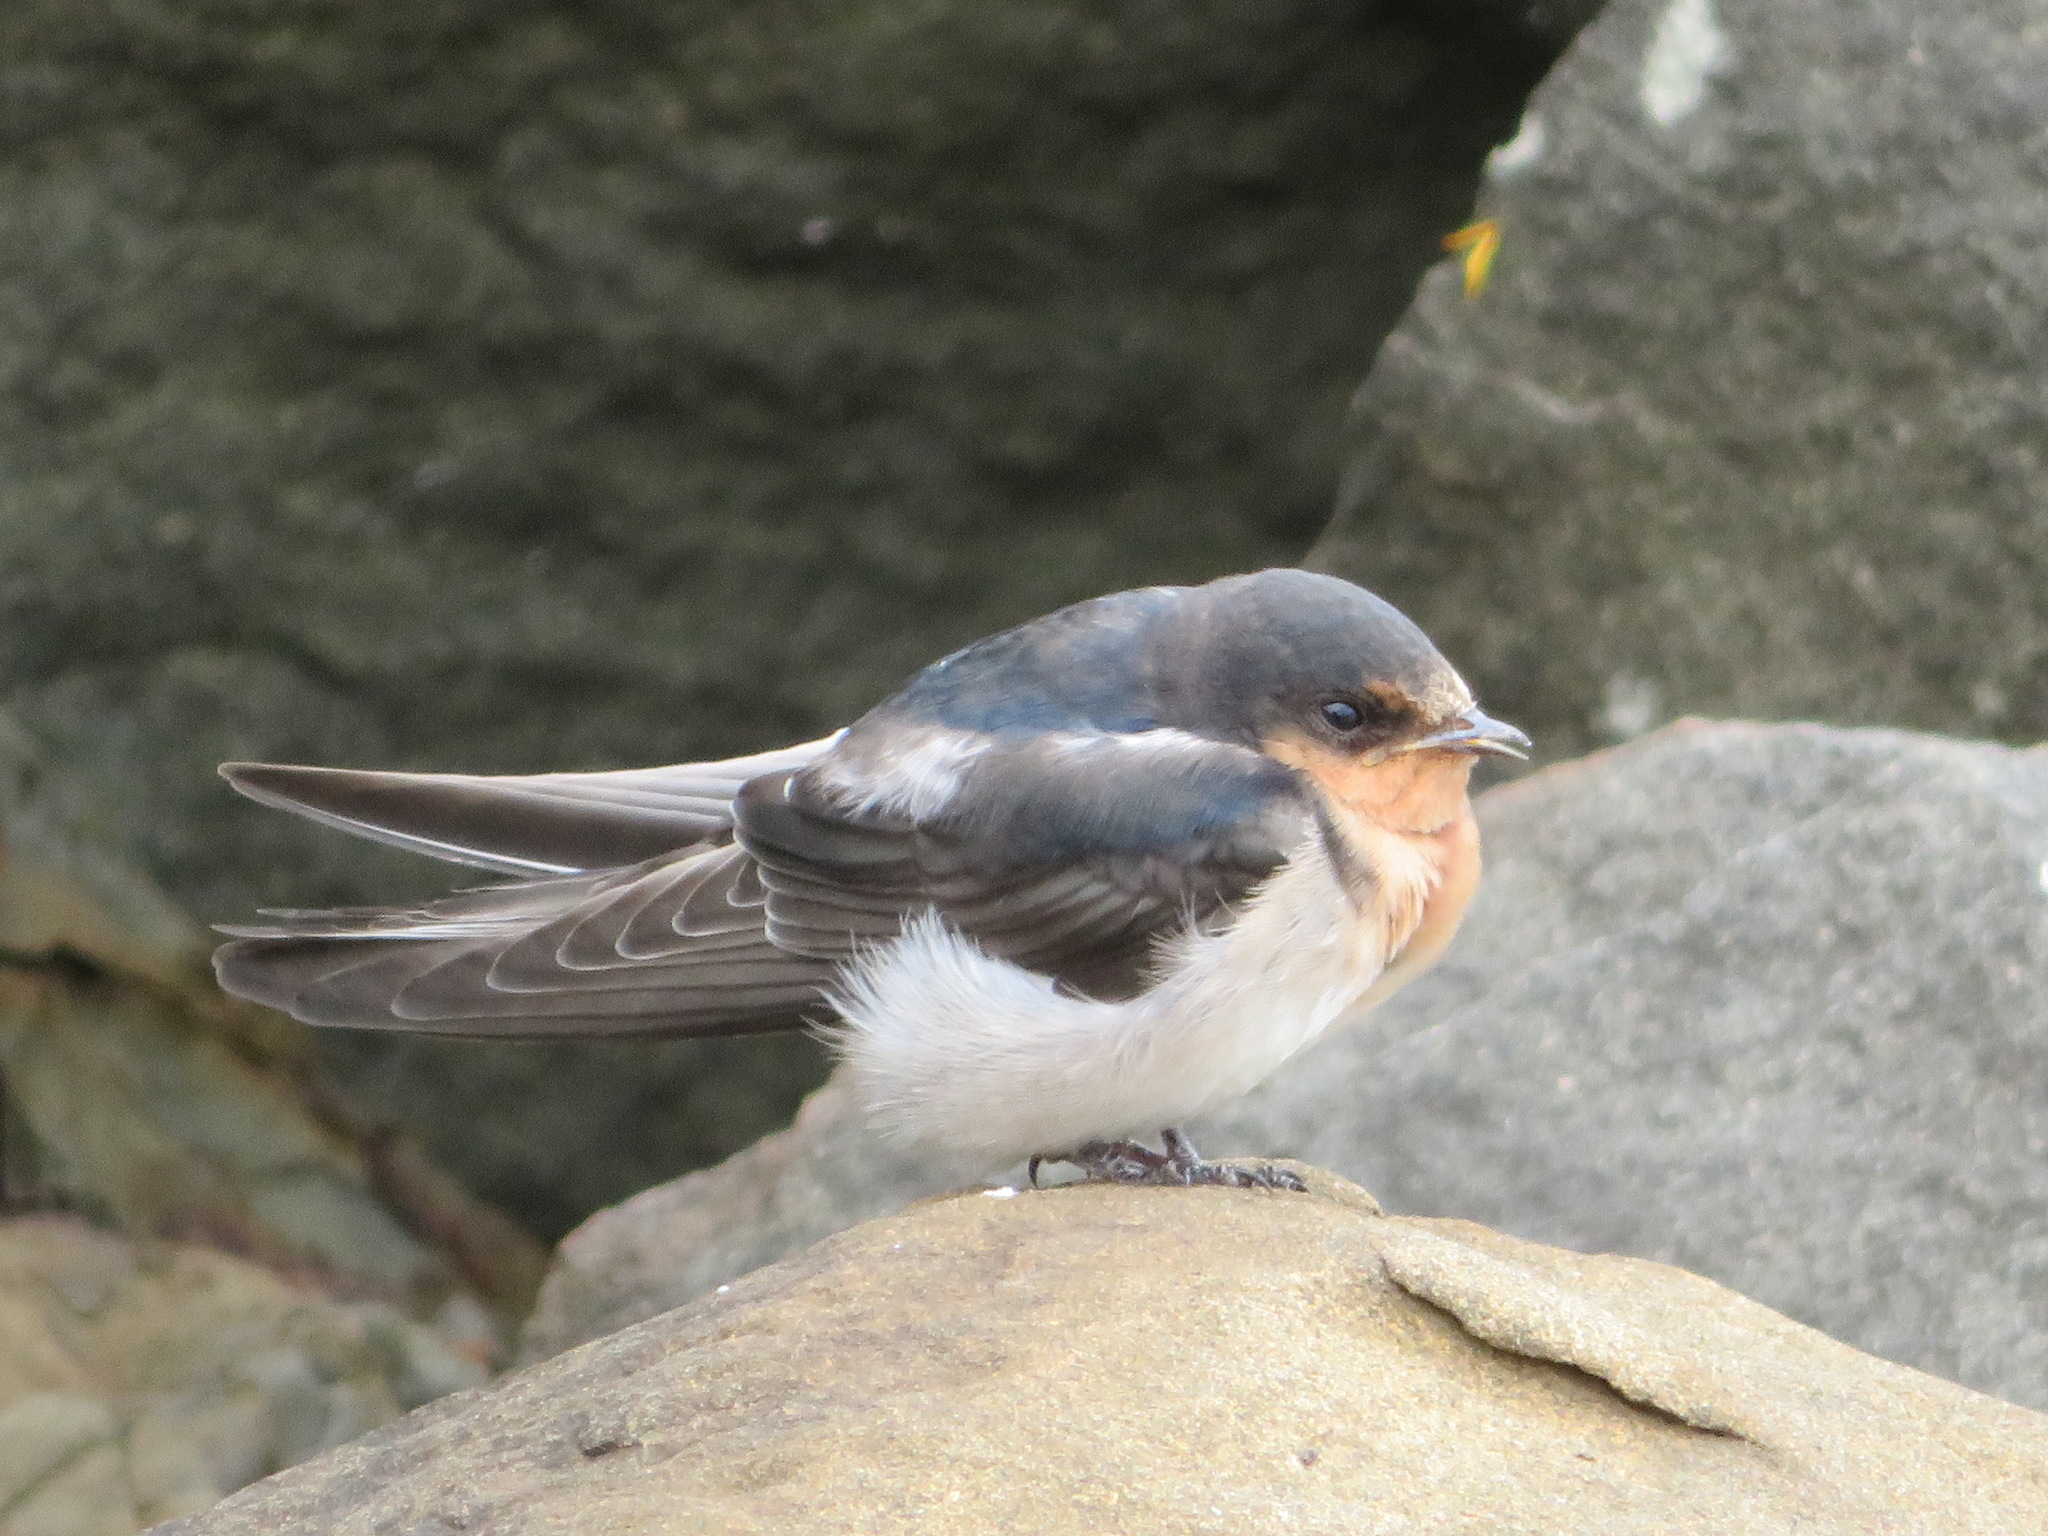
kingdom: Animalia
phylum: Chordata
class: Aves
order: Passeriformes
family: Hirundinidae
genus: Hirundo
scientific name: Hirundo neoxena
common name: Welcome swallow
